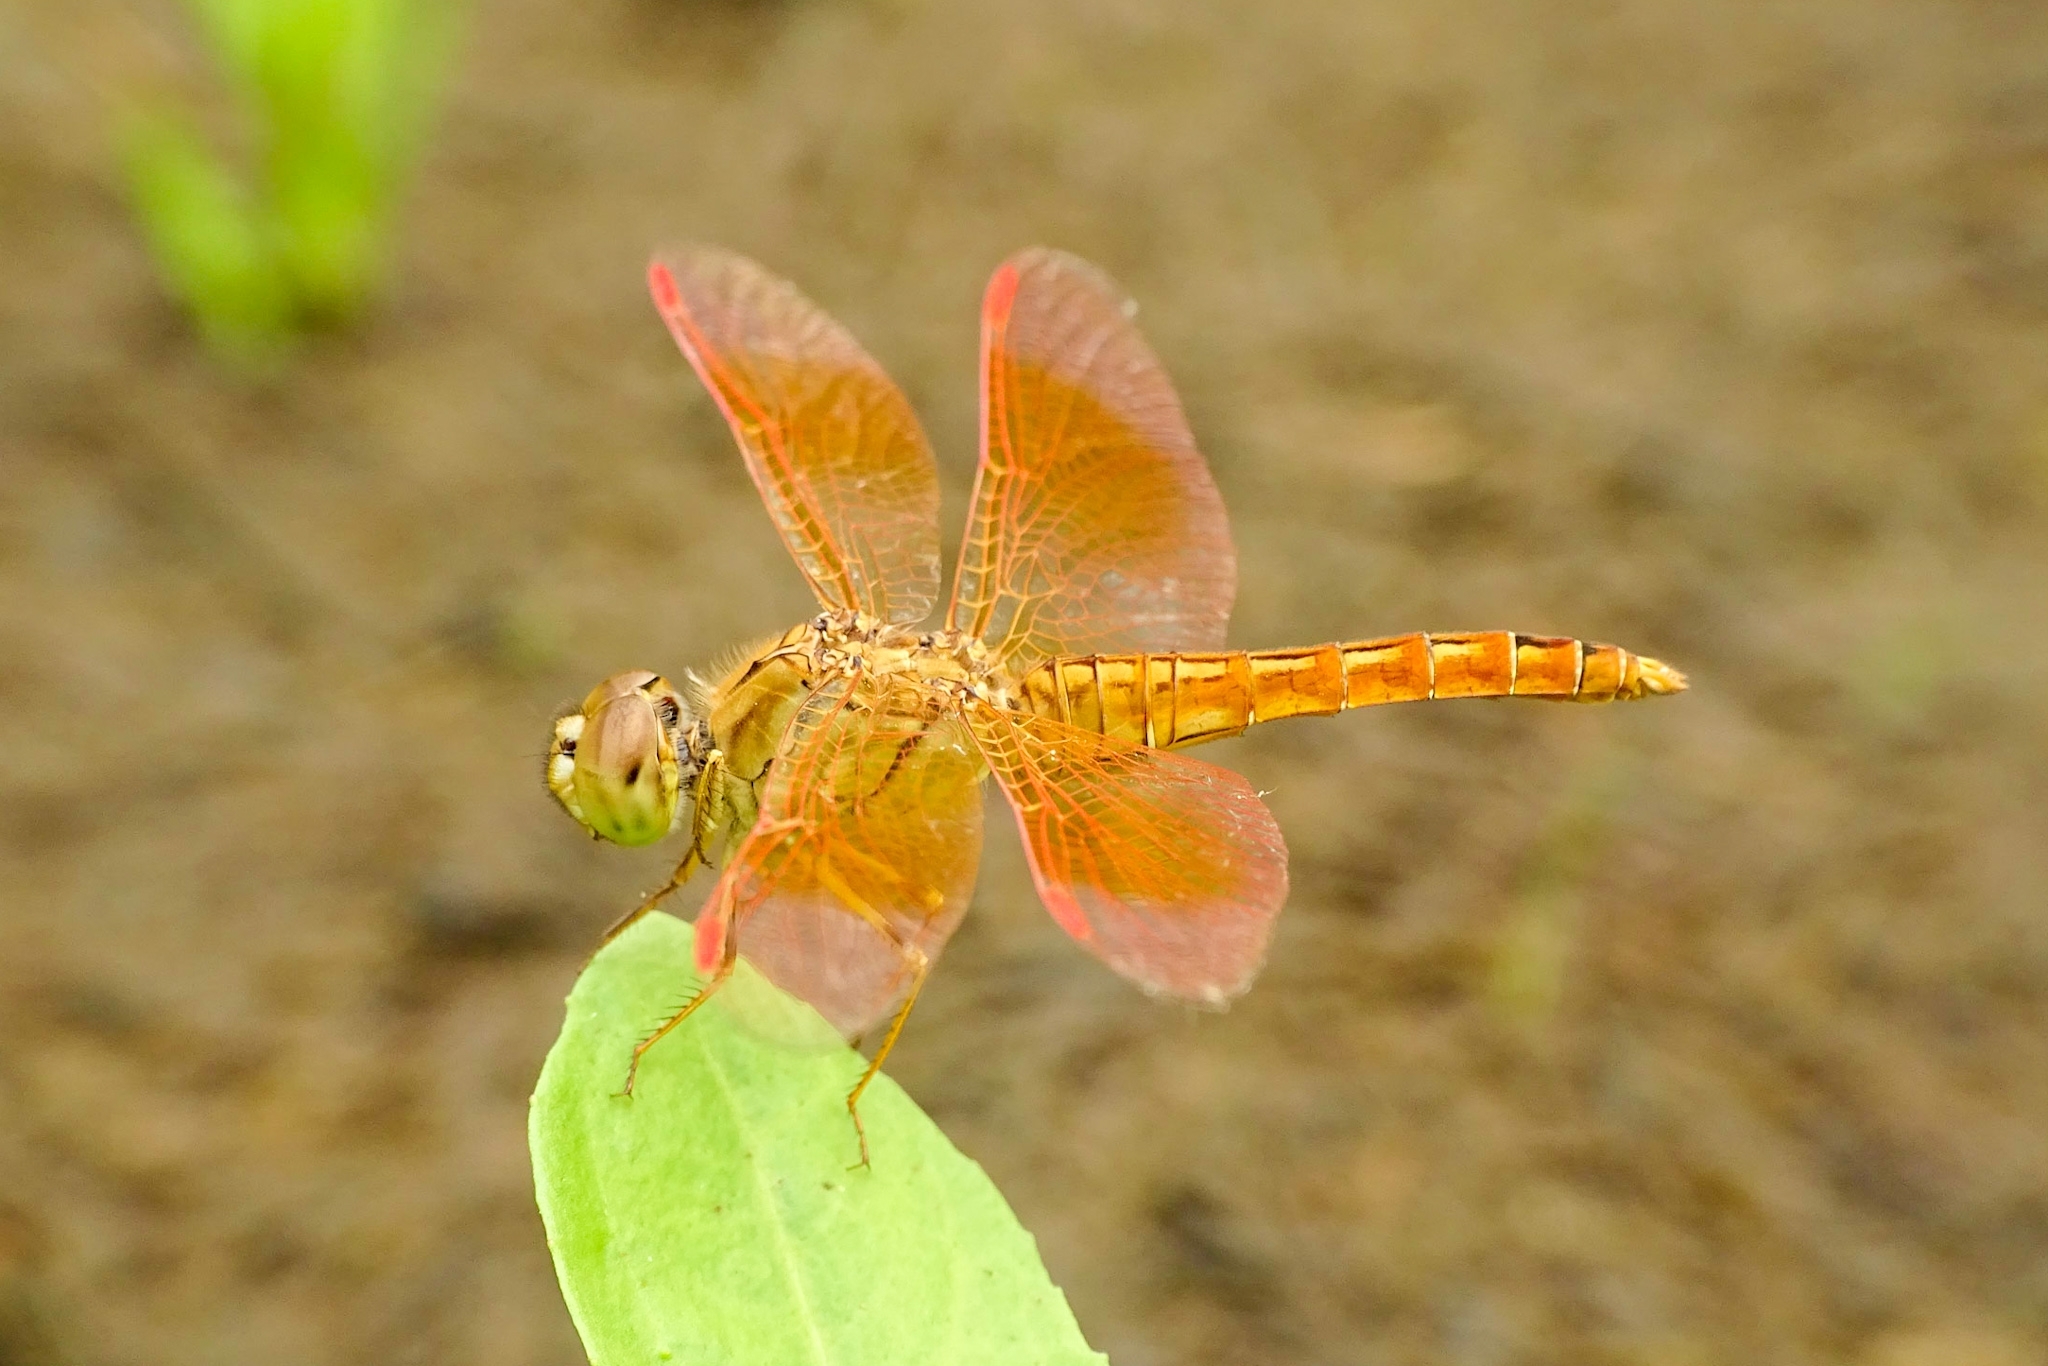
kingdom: Animalia
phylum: Arthropoda
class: Insecta
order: Odonata
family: Libellulidae
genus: Brachythemis
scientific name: Brachythemis contaminata
